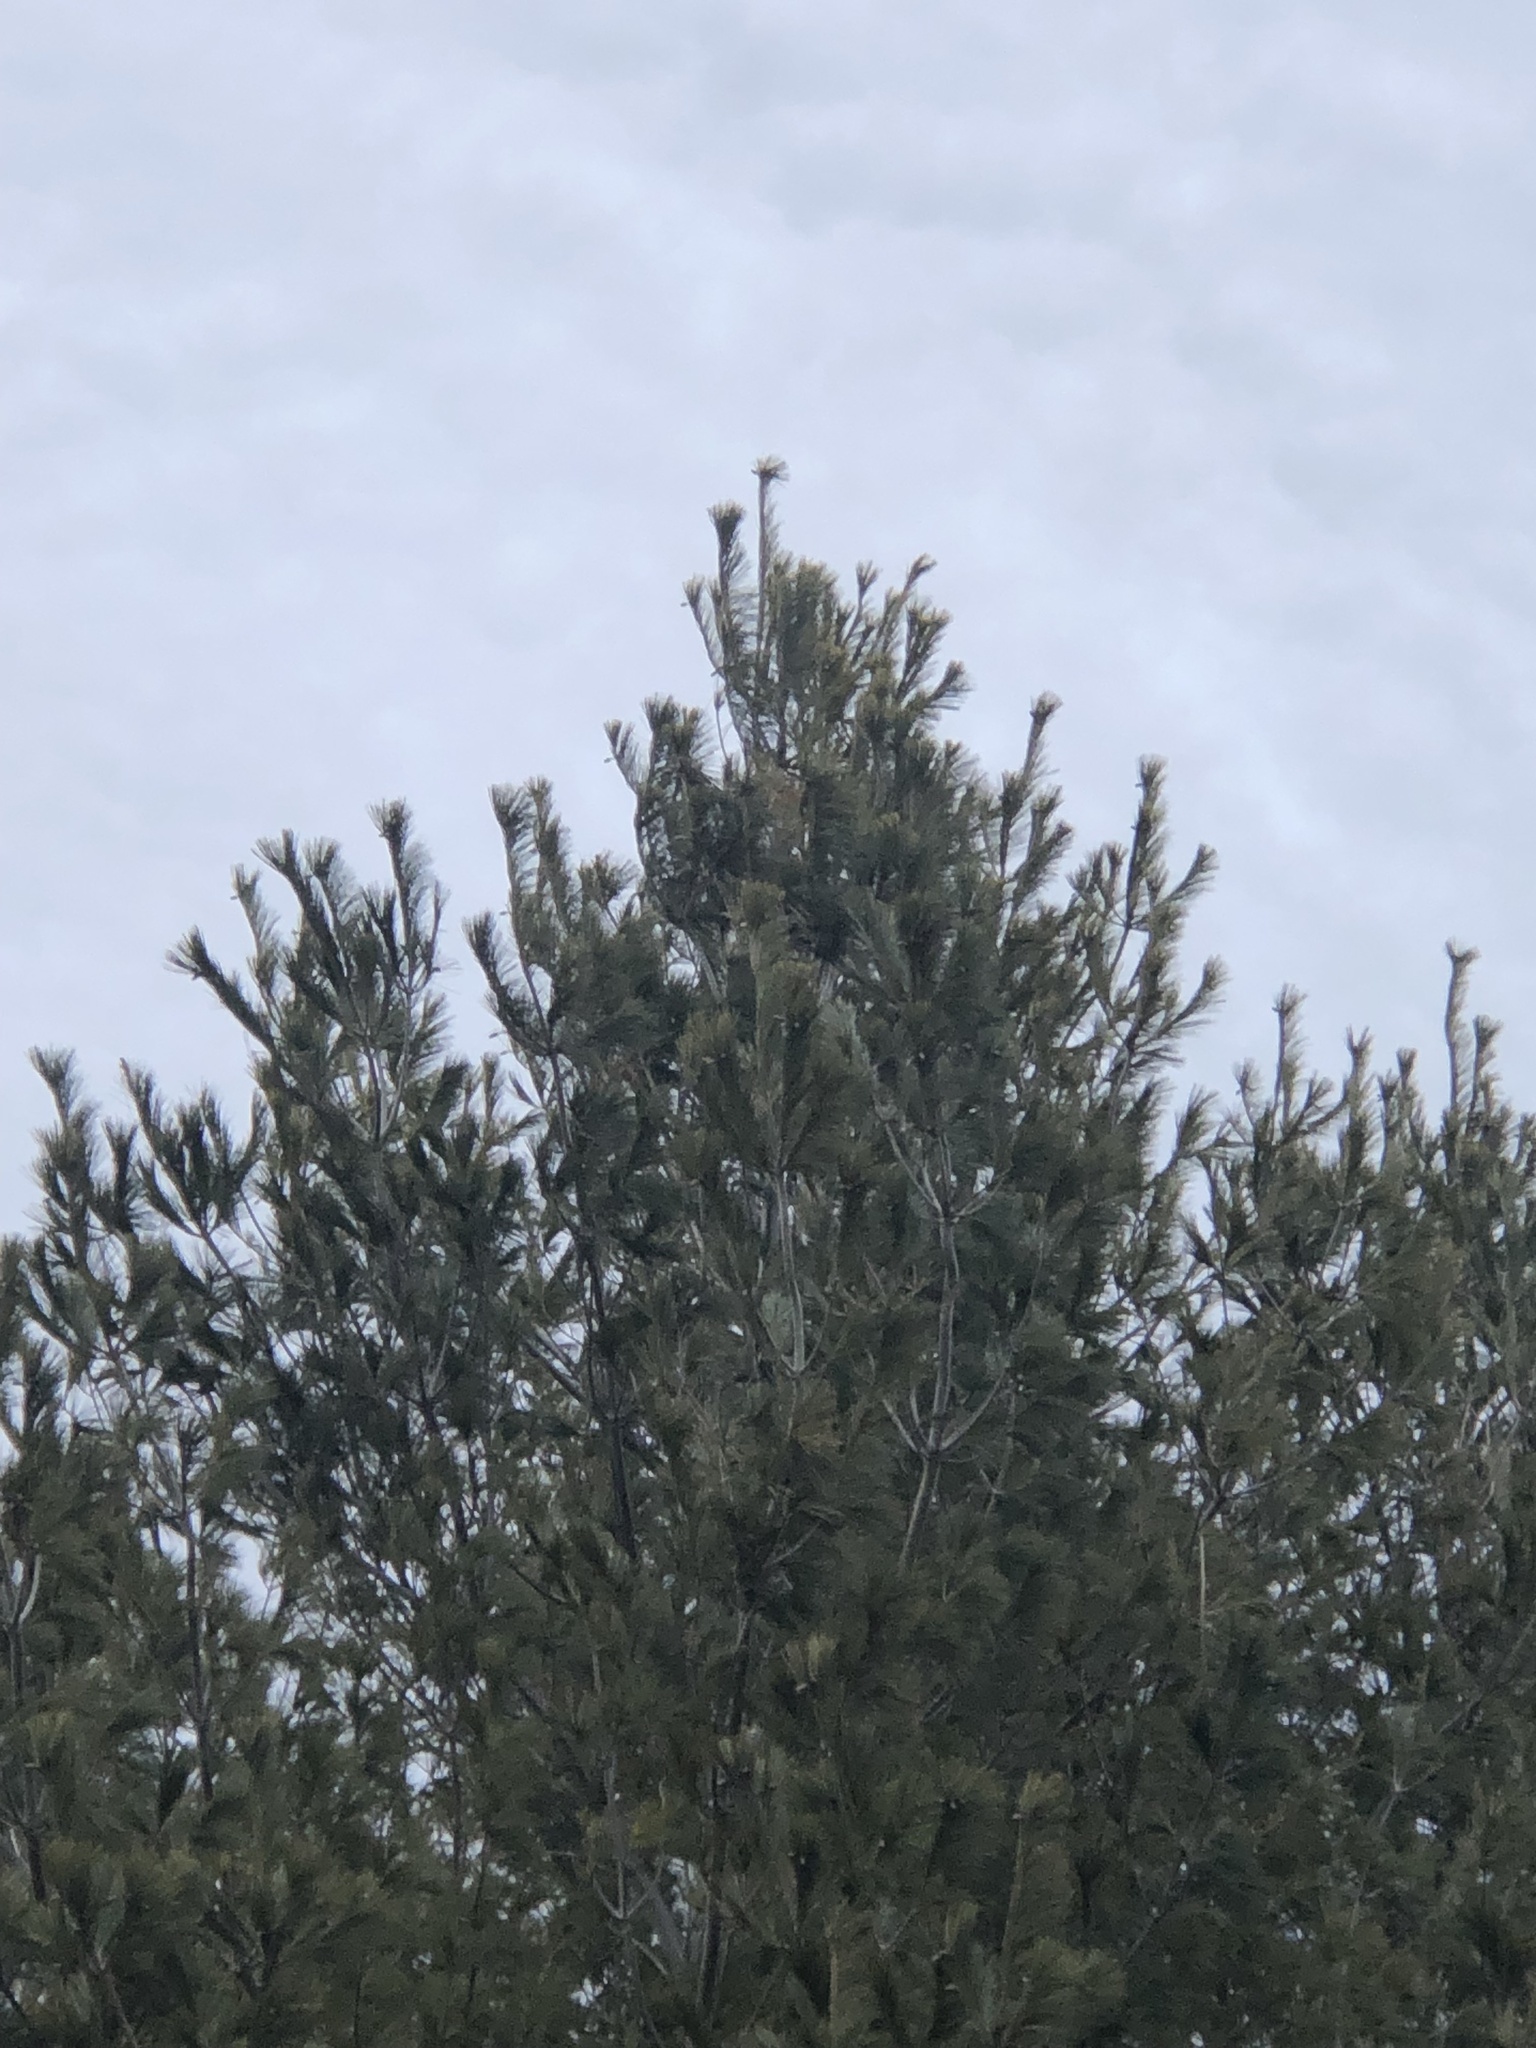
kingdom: Plantae
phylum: Tracheophyta
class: Pinopsida
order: Pinales
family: Pinaceae
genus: Pinus
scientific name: Pinus strobus
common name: Weymouth pine
